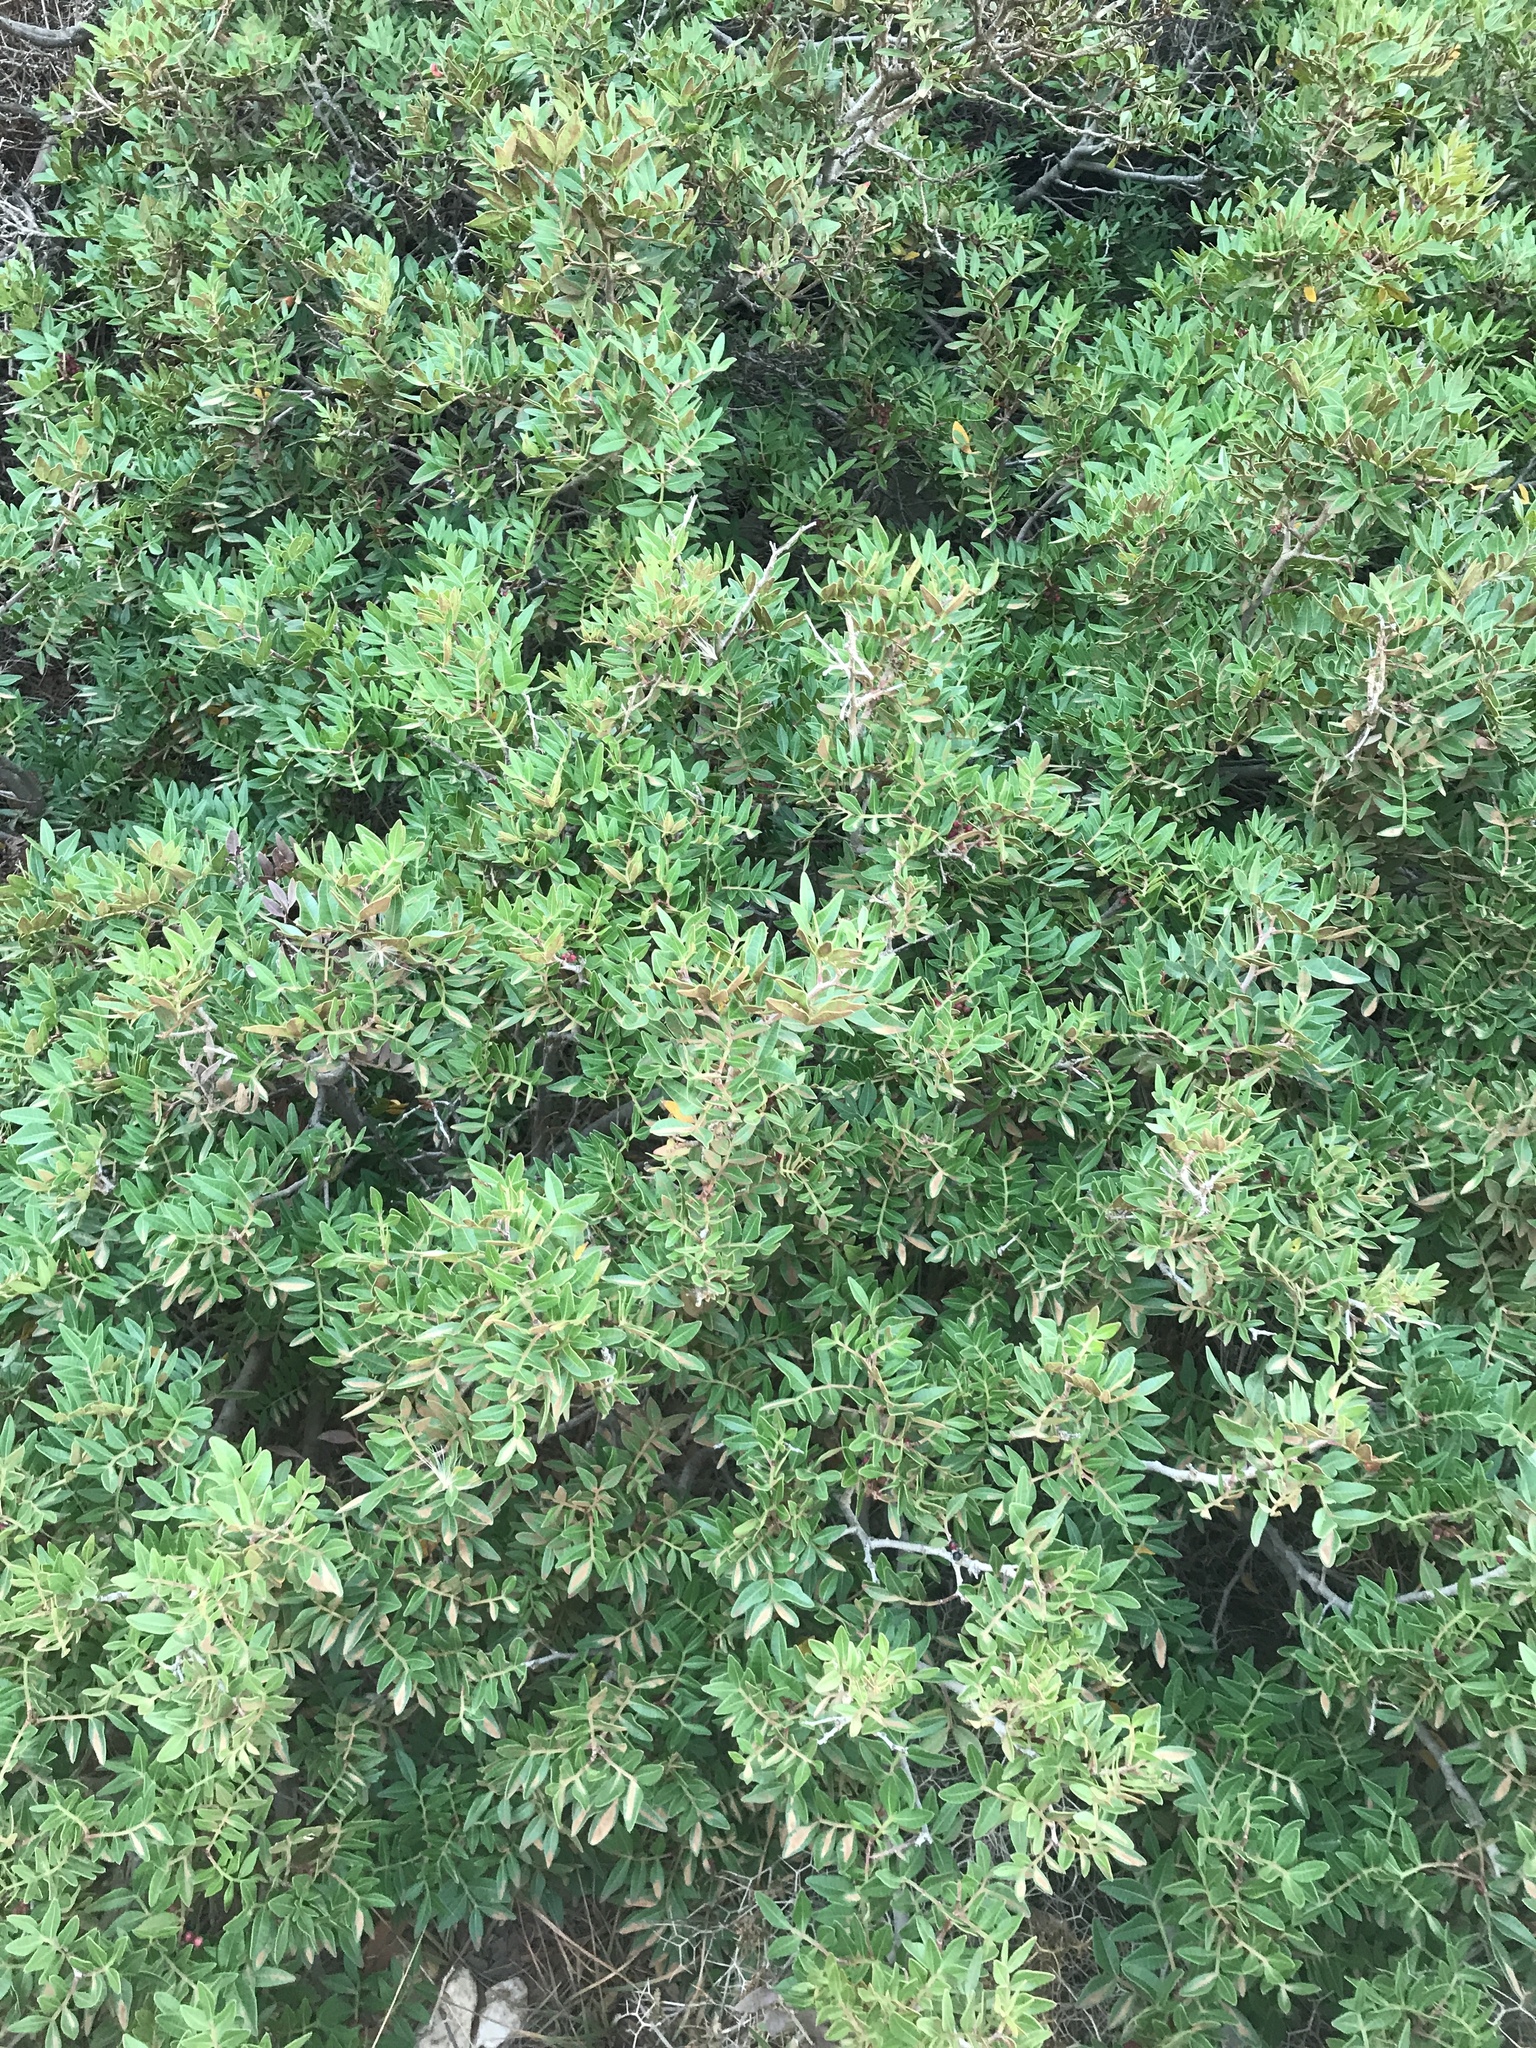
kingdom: Plantae
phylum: Tracheophyta
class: Magnoliopsida
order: Sapindales
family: Anacardiaceae
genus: Pistacia
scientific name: Pistacia lentiscus
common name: Lentisk
